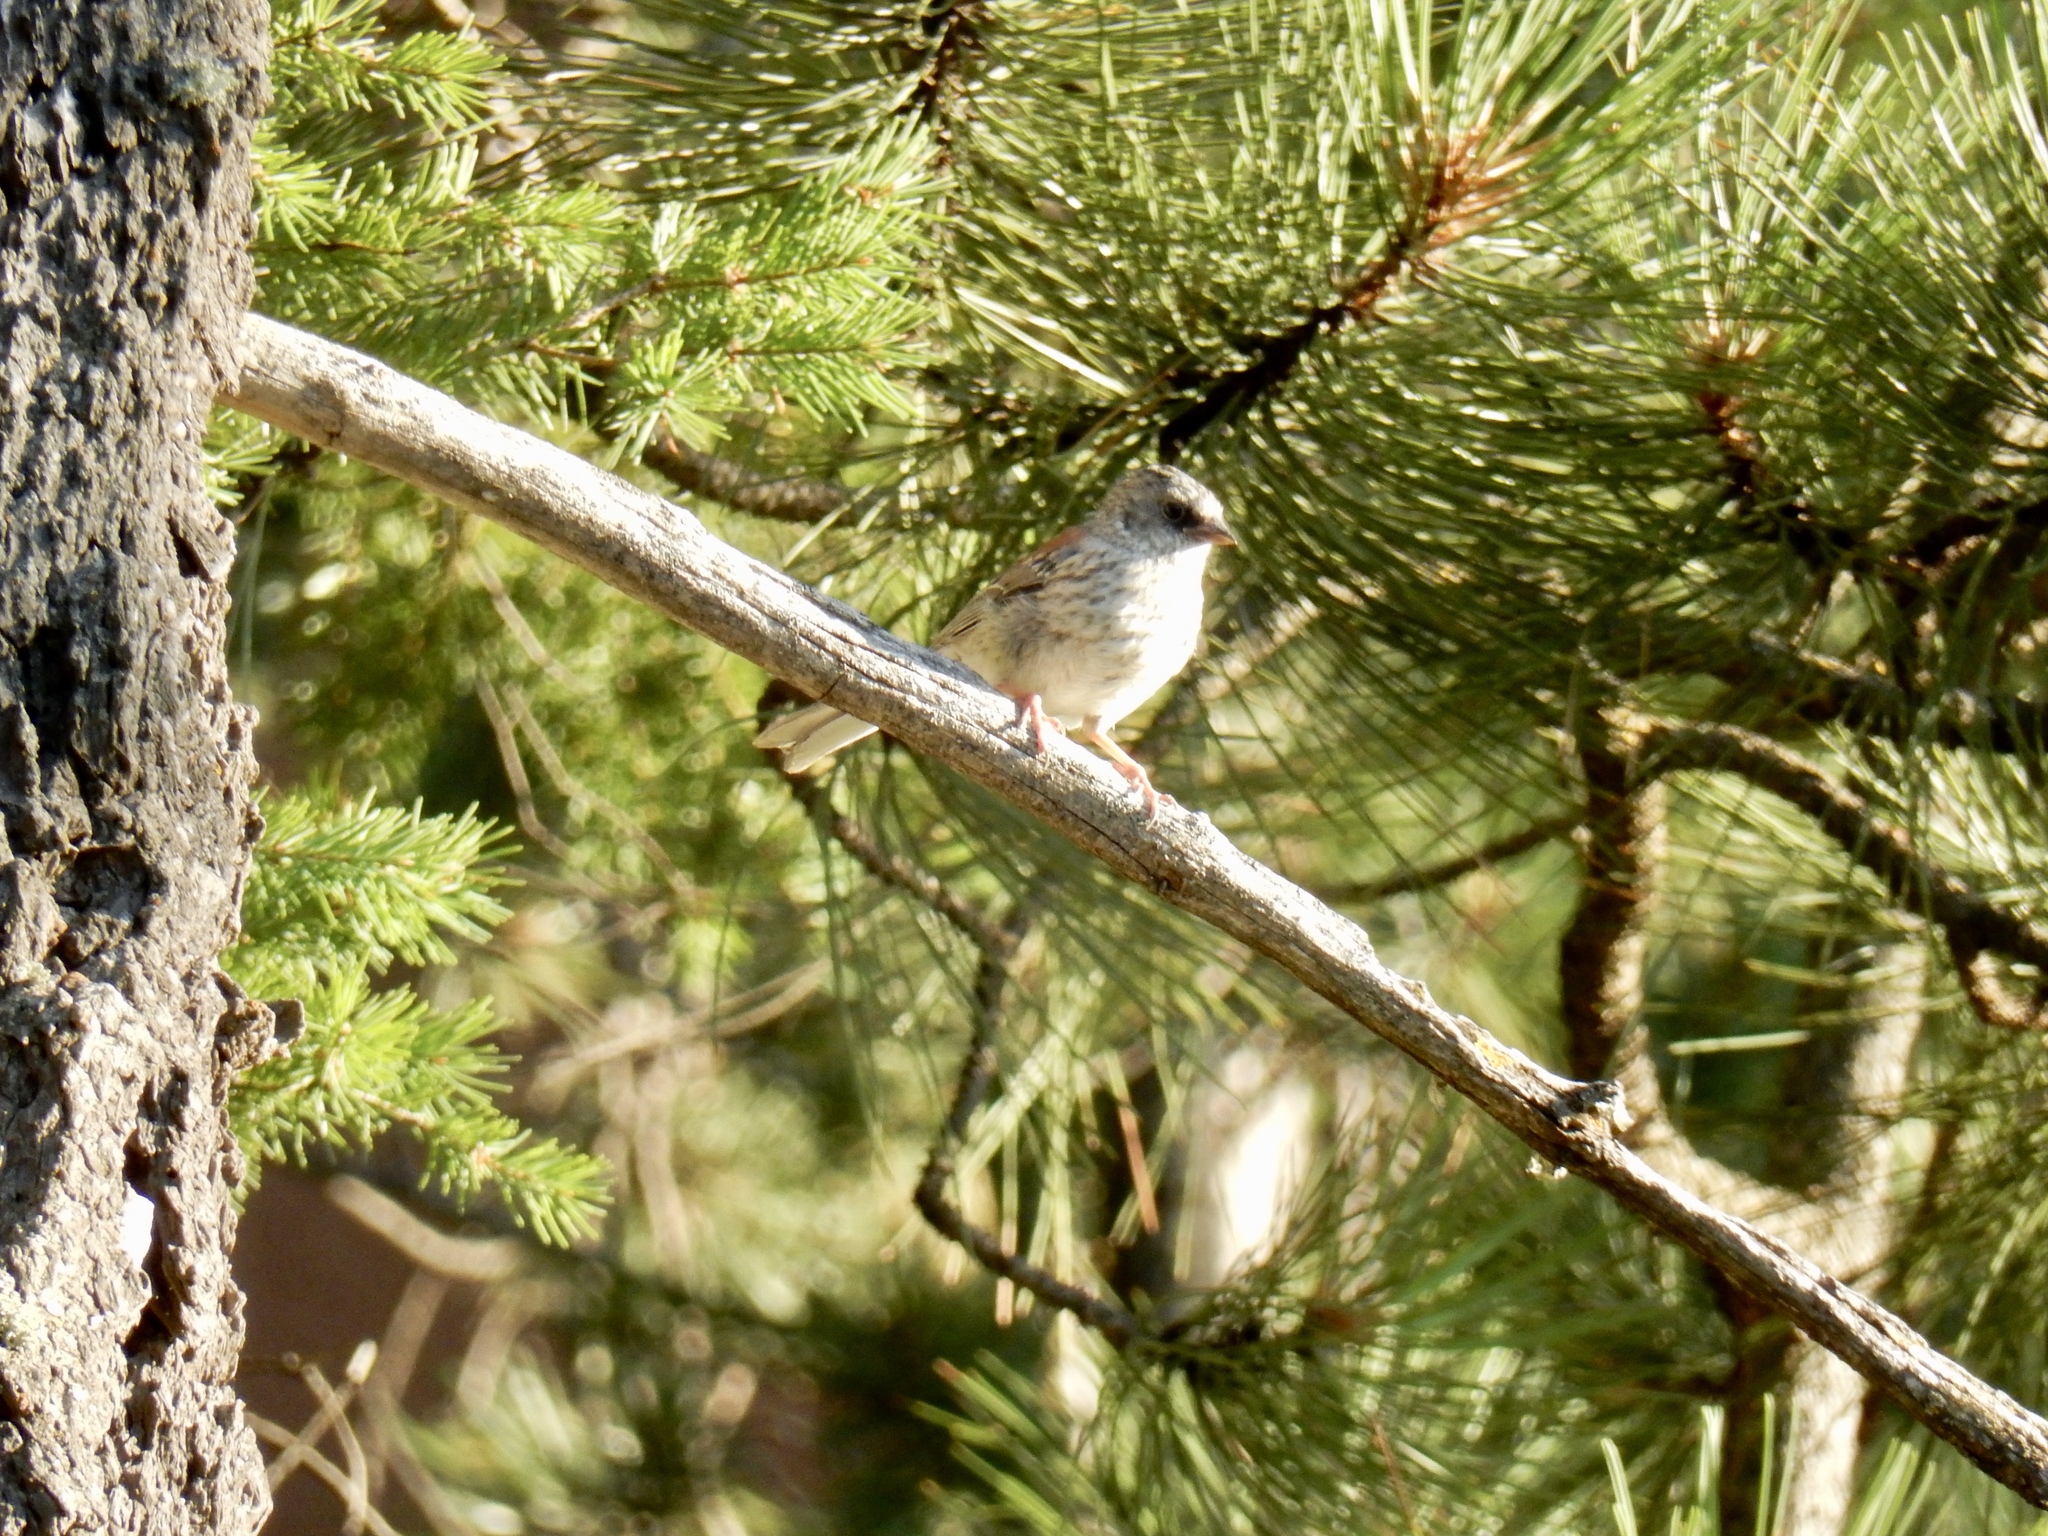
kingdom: Animalia
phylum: Chordata
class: Aves
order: Passeriformes
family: Passerellidae
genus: Junco
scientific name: Junco hyemalis
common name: Dark-eyed junco
